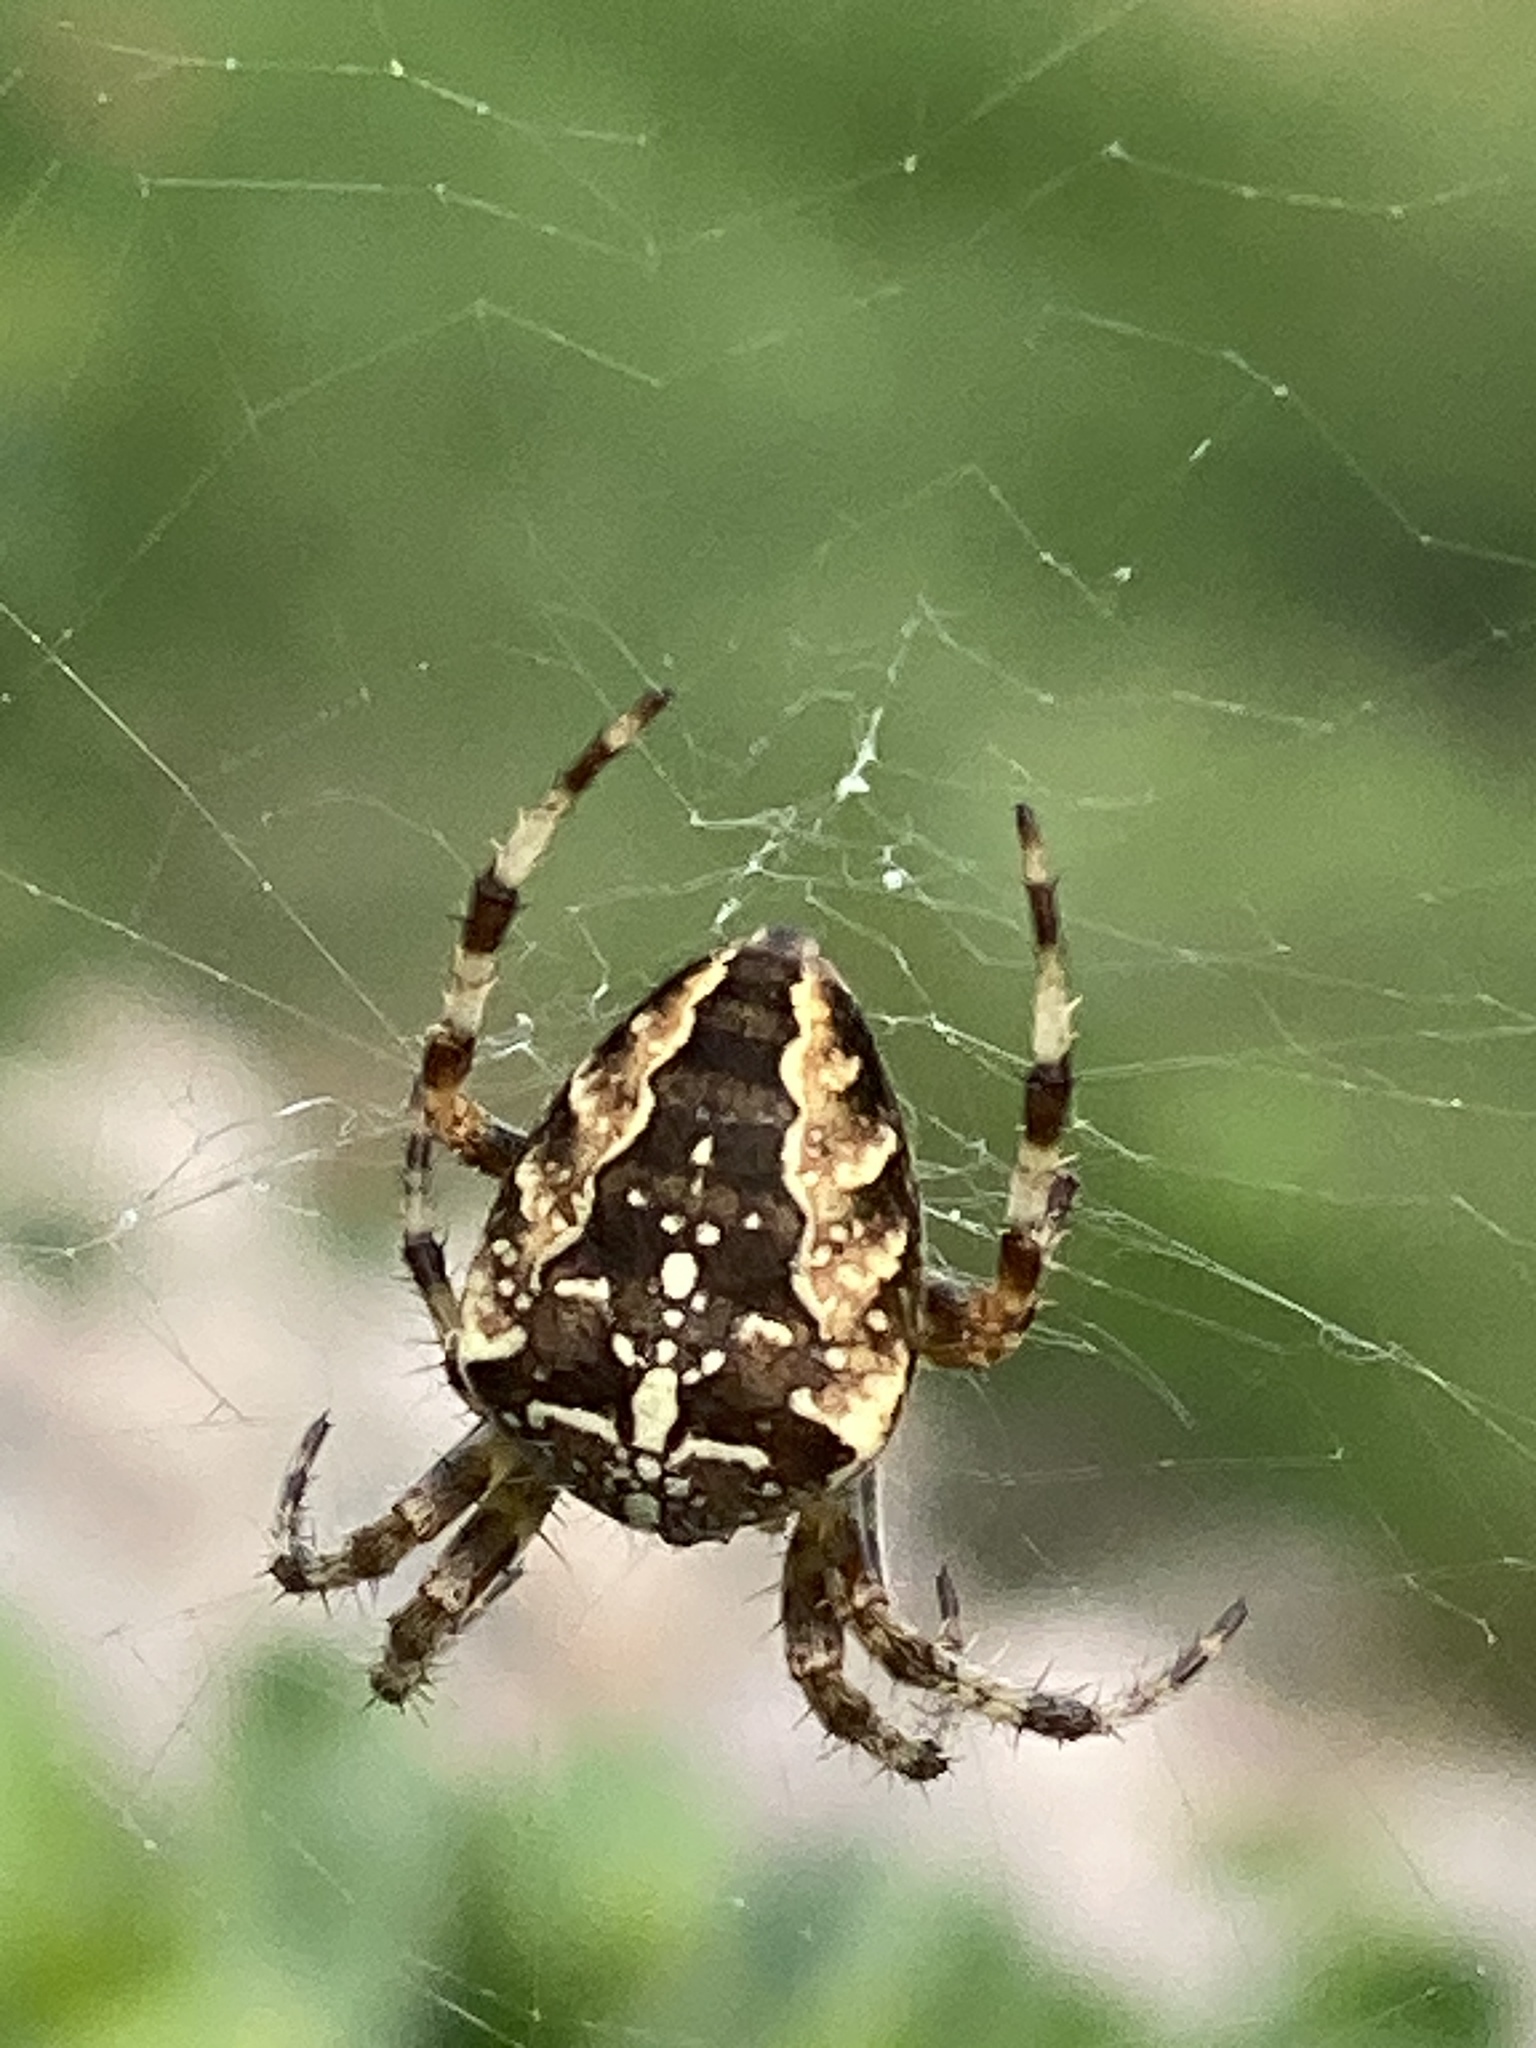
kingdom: Animalia
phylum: Arthropoda
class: Arachnida
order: Araneae
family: Araneidae
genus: Araneus
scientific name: Araneus diadematus
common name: Cross orbweaver
